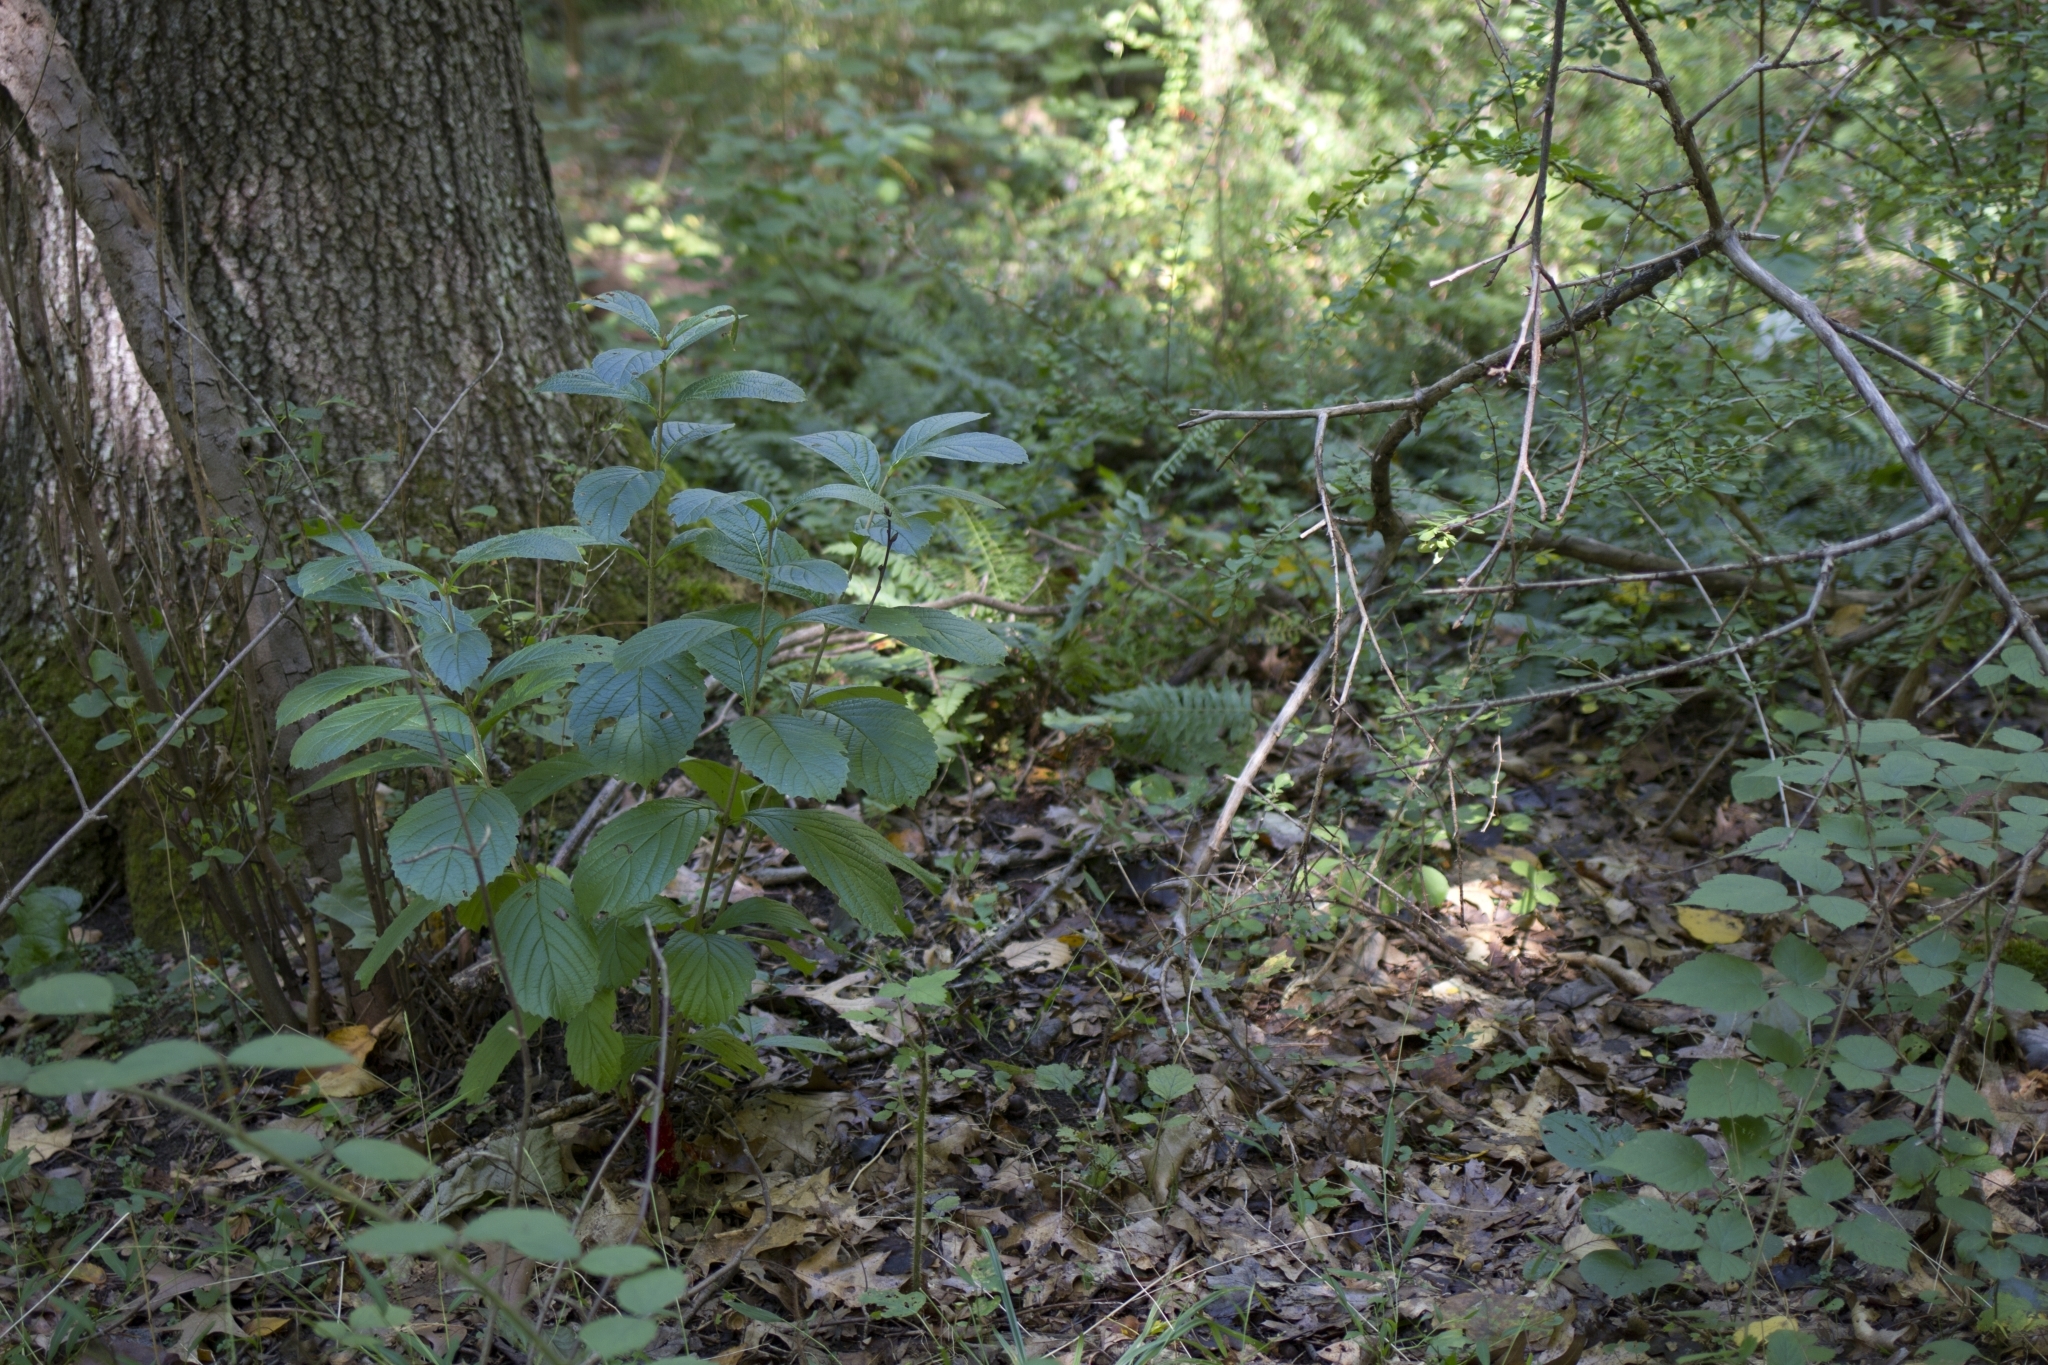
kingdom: Plantae
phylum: Tracheophyta
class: Magnoliopsida
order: Dipsacales
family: Viburnaceae
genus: Viburnum
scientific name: Viburnum sieboldii
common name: Siebold's arrowwood
